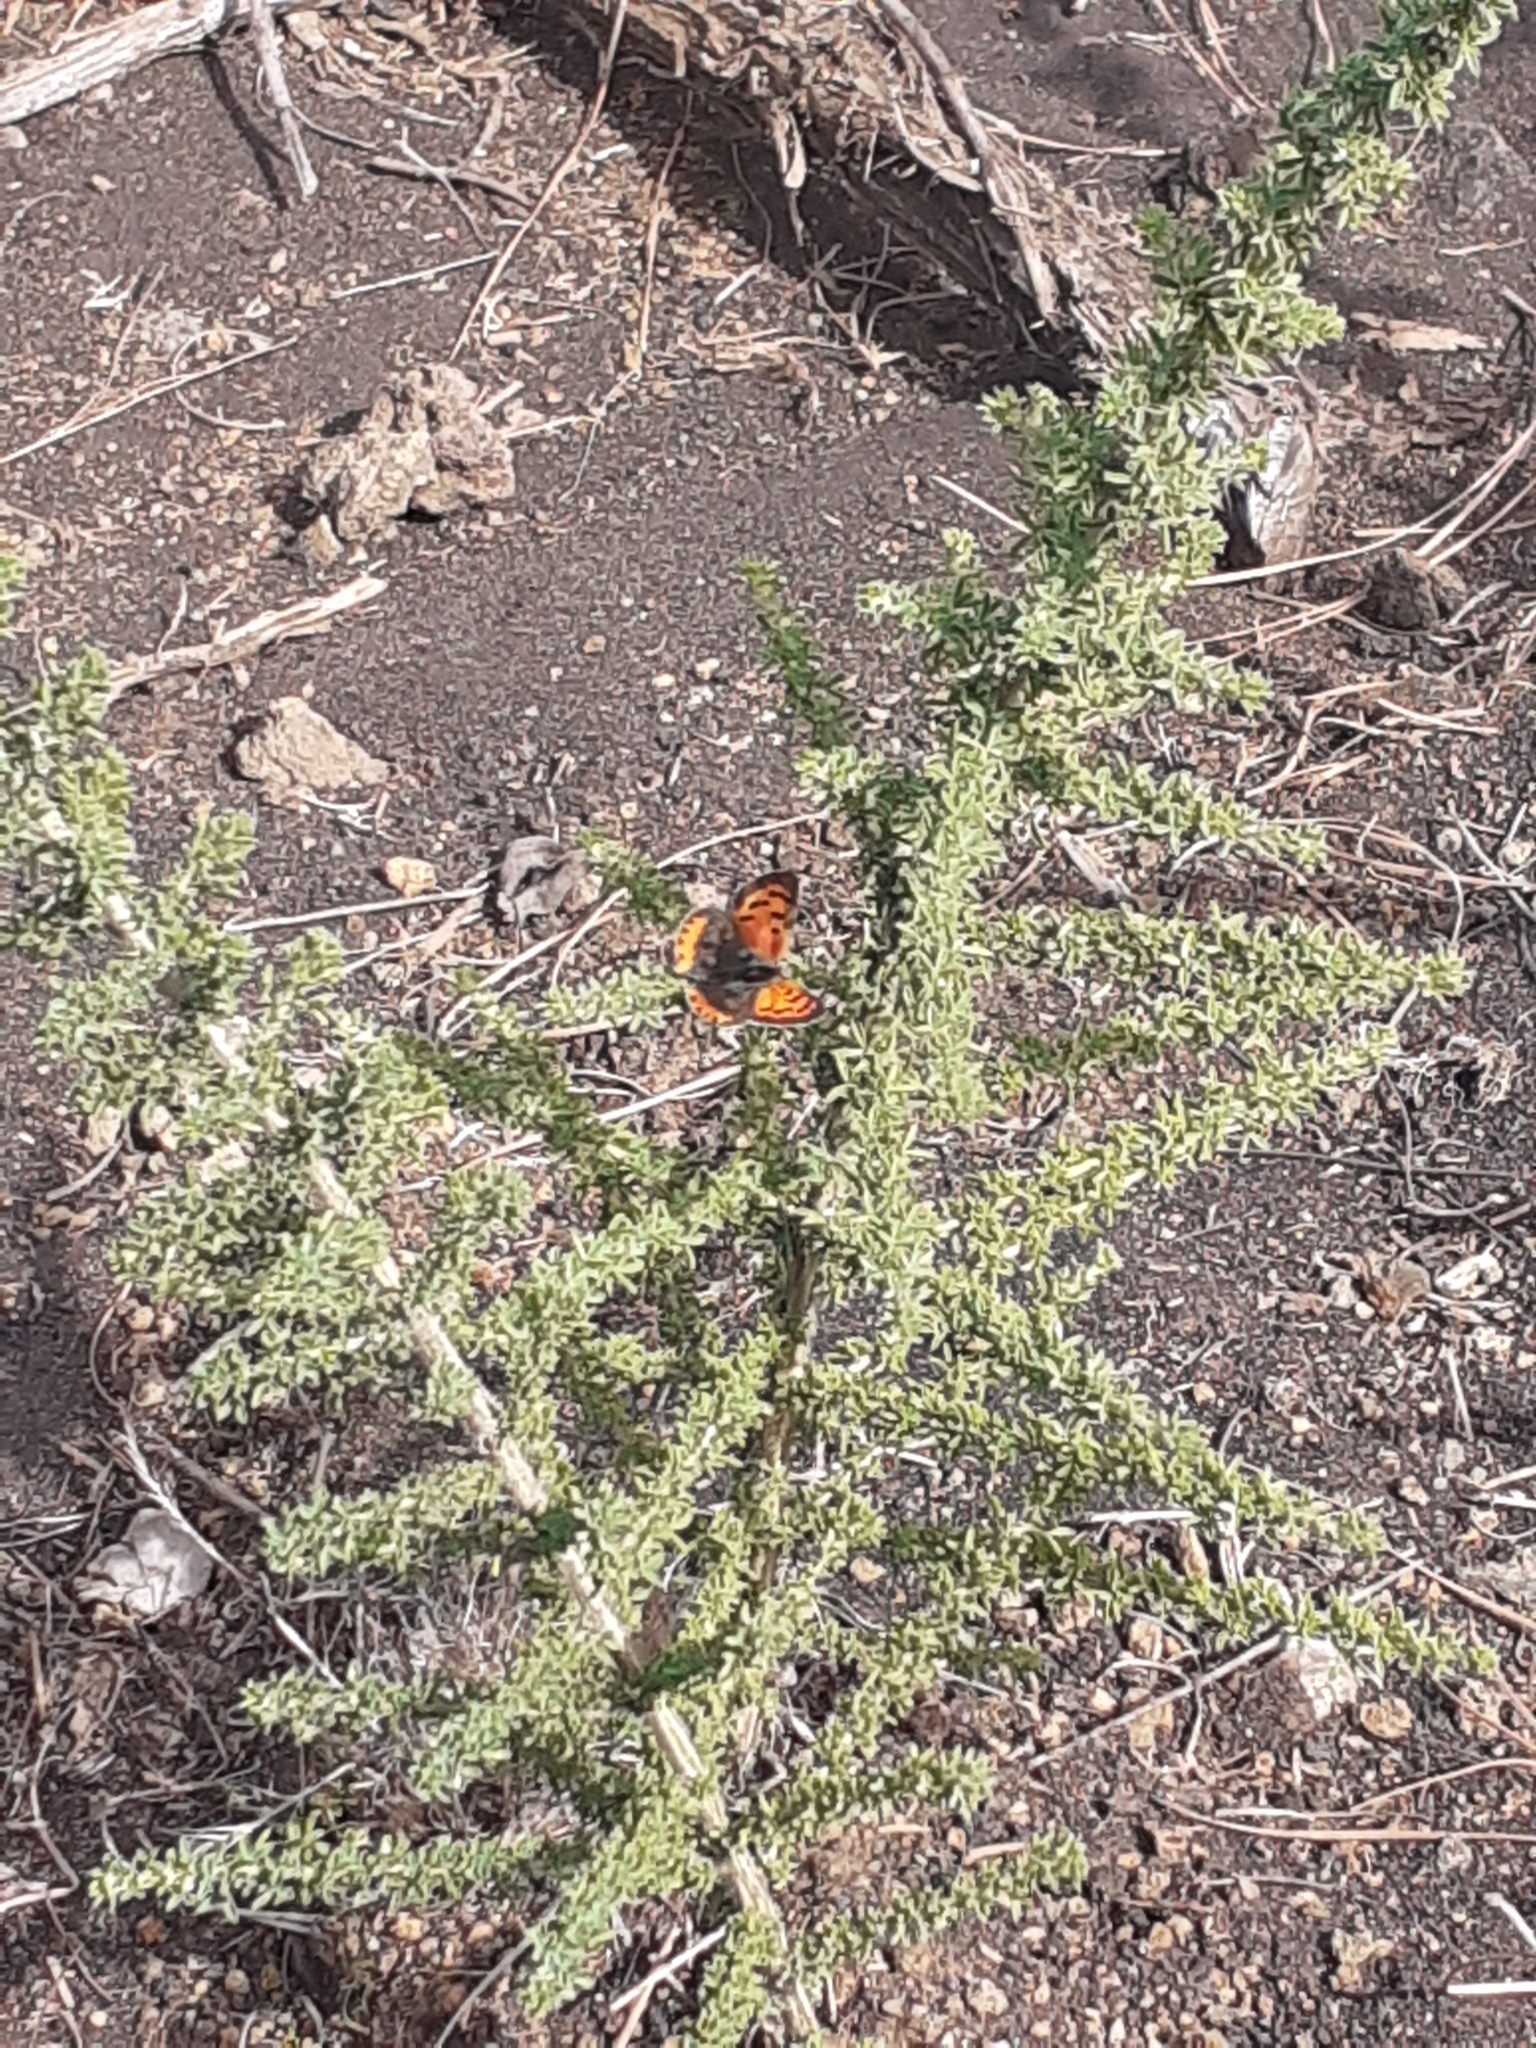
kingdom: Animalia
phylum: Arthropoda
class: Insecta
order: Lepidoptera
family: Lycaenidae
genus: Lycaena
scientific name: Lycaena phlaeas
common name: Small copper
